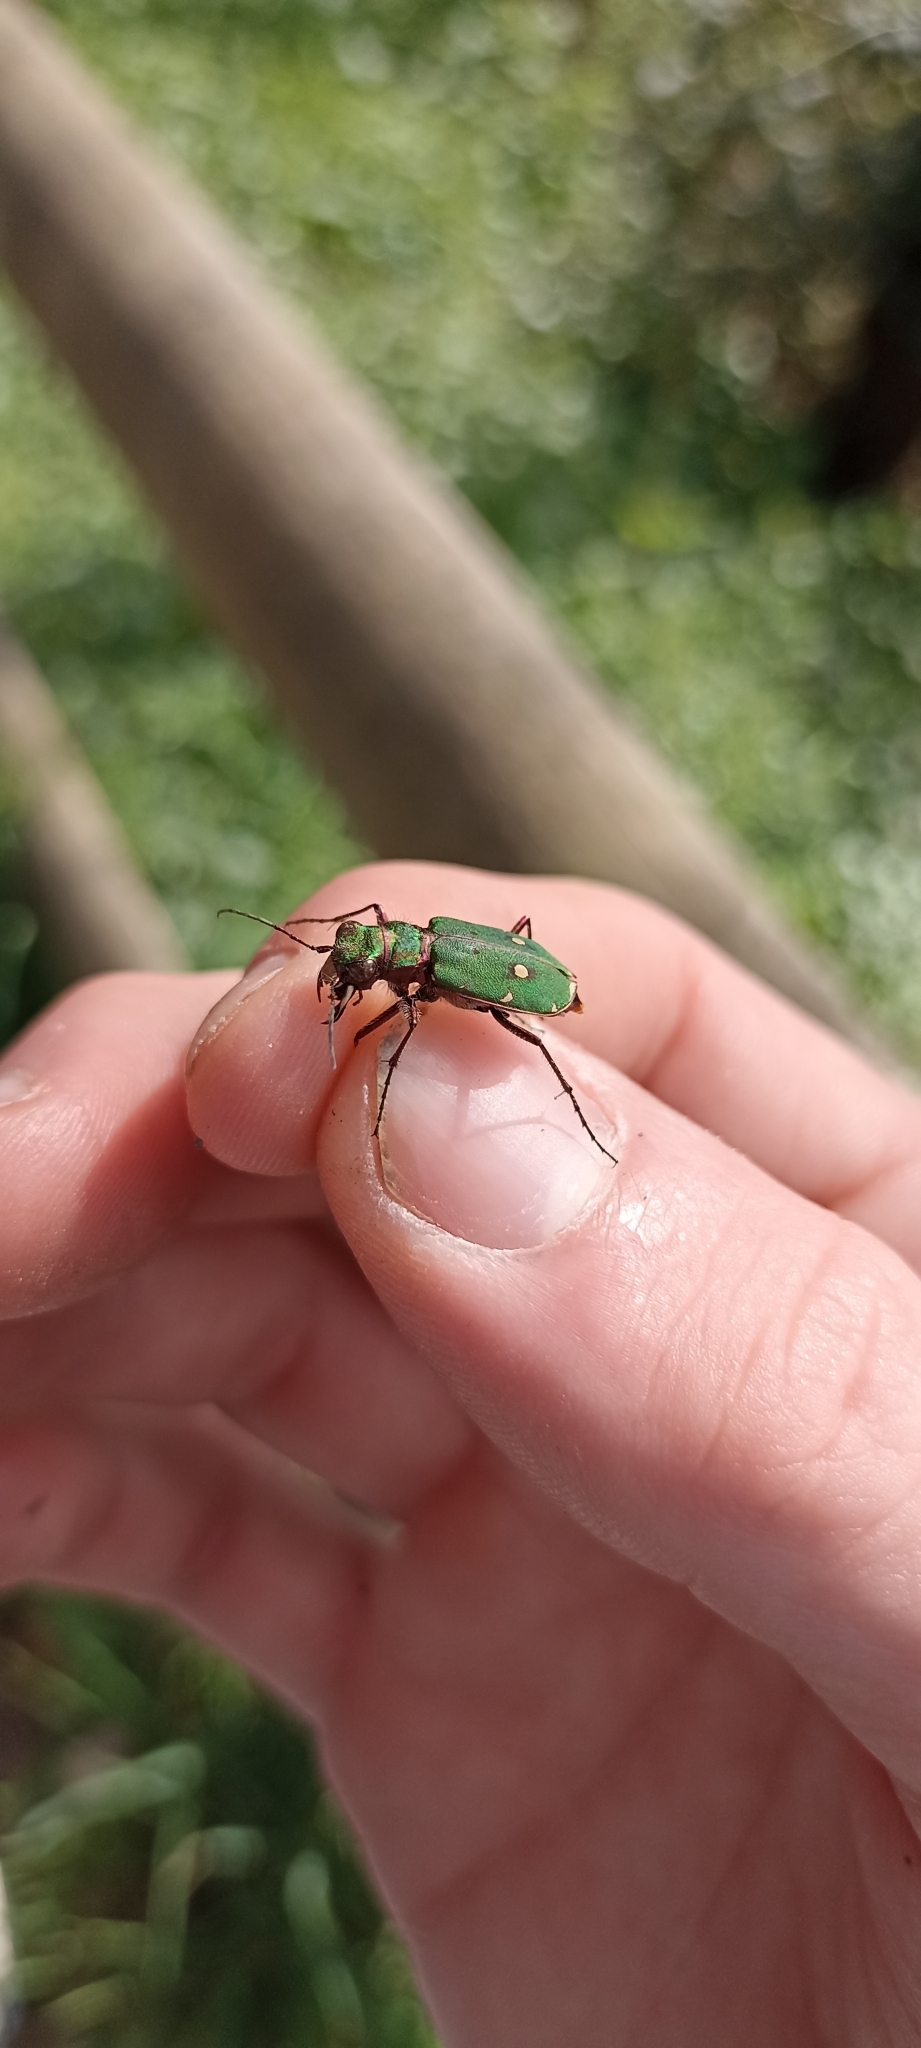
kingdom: Animalia
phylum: Arthropoda
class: Insecta
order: Coleoptera
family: Carabidae
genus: Cicindela
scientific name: Cicindela campestris
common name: Common tiger beetle
